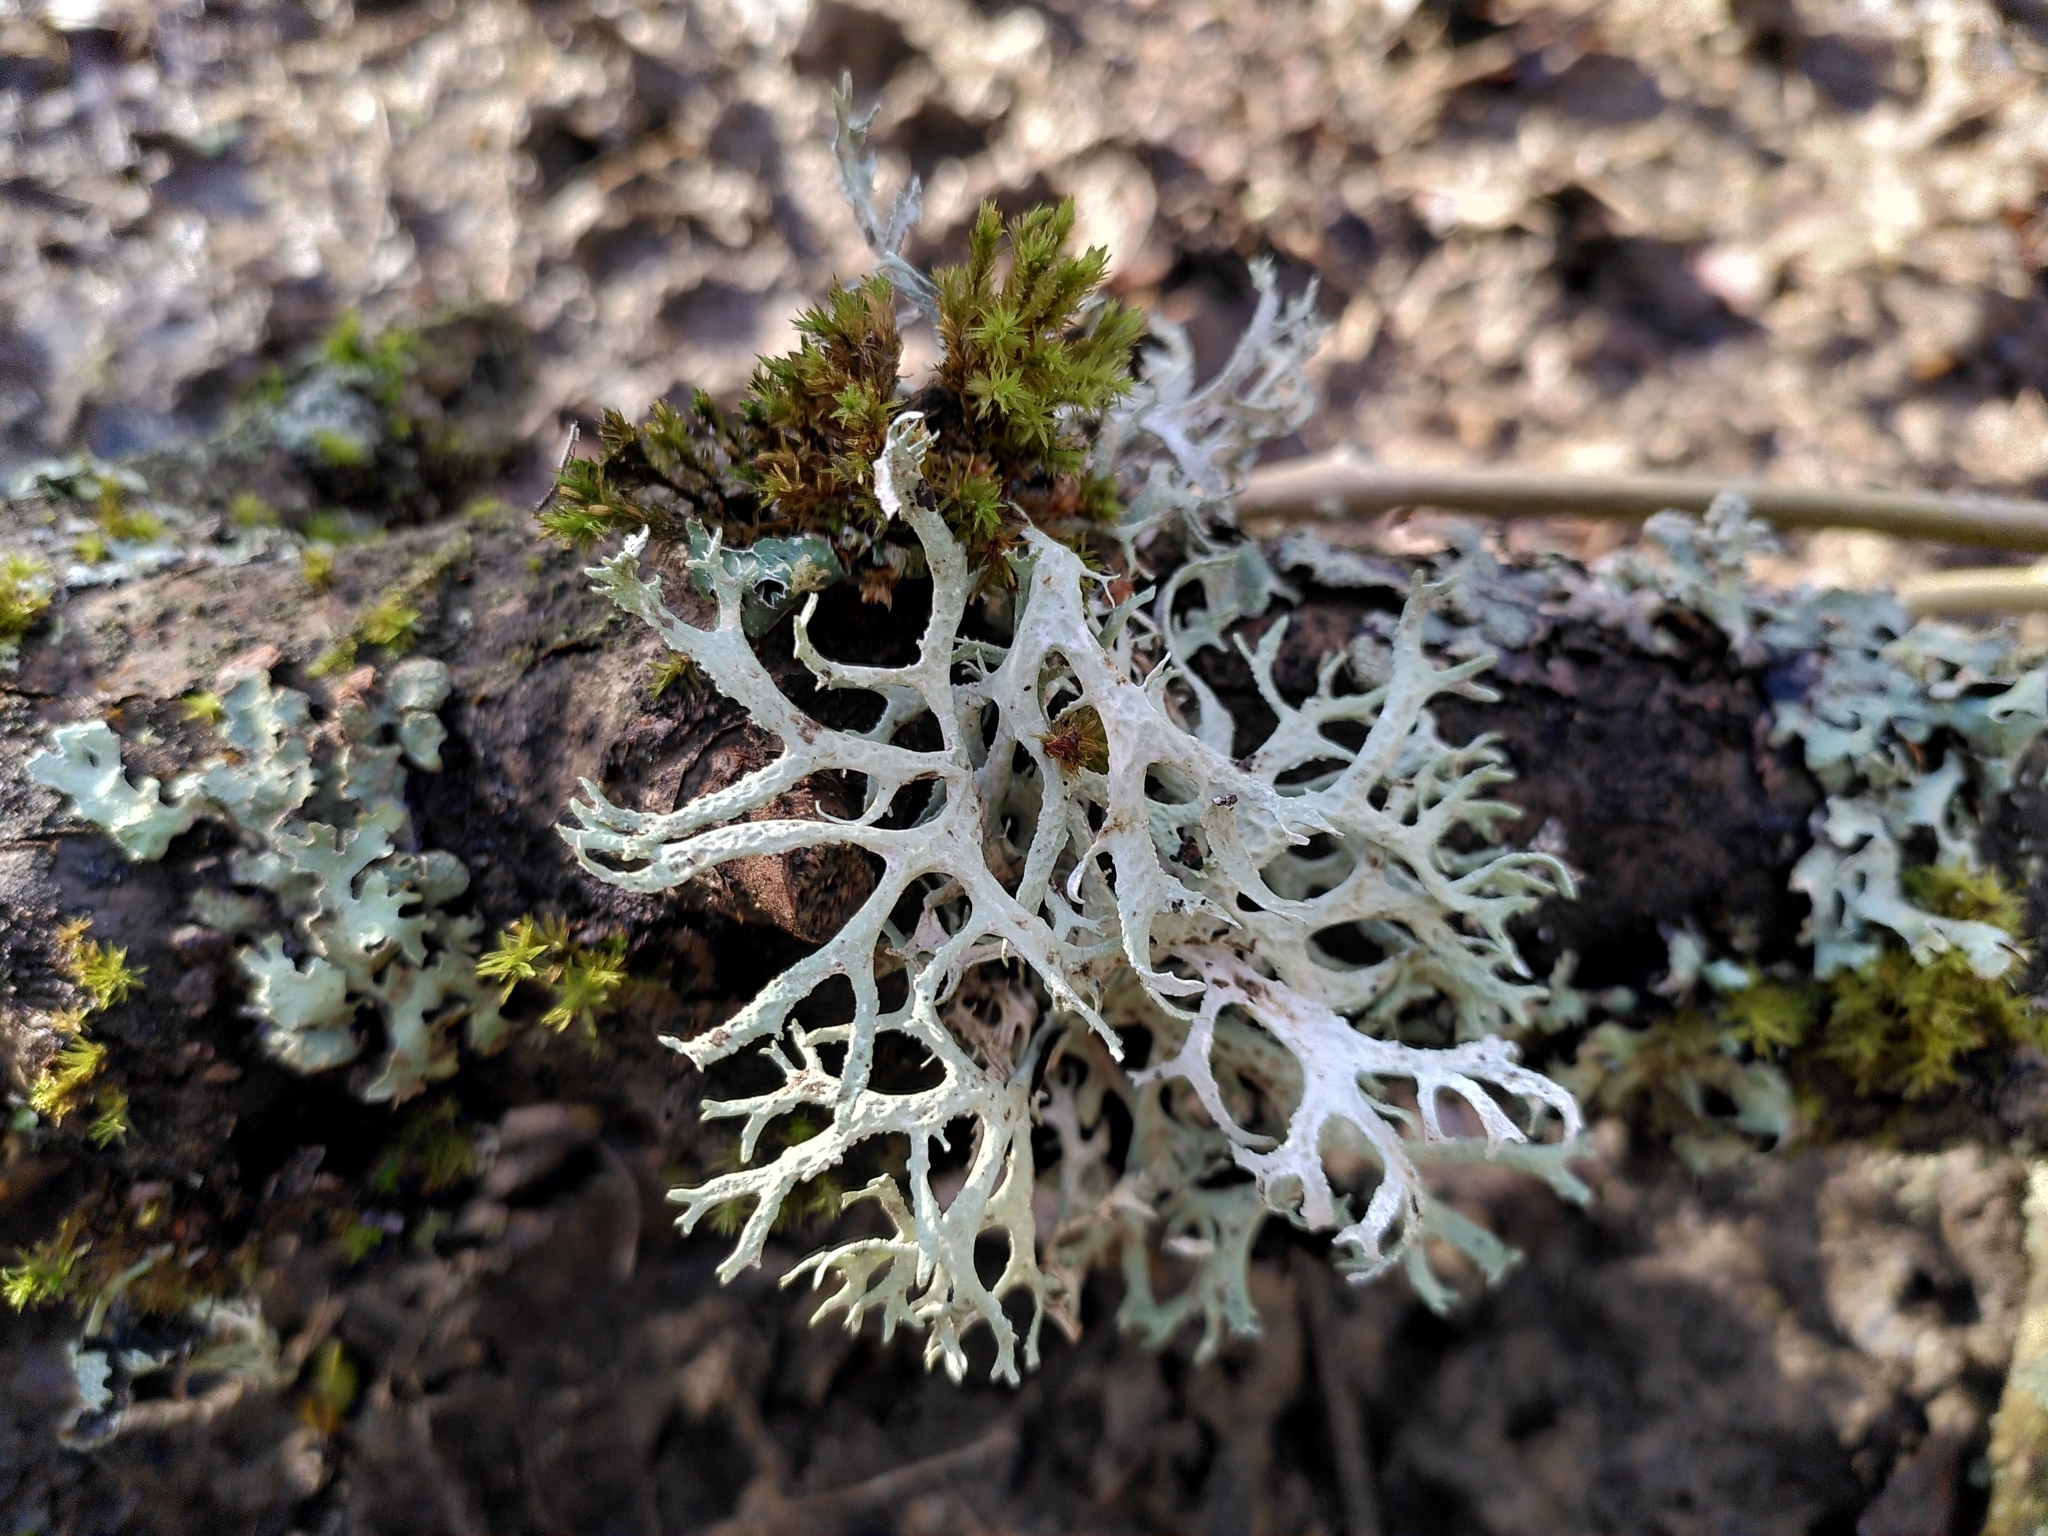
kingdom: Fungi
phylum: Ascomycota
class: Lecanoromycetes
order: Lecanorales
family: Parmeliaceae
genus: Evernia
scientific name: Evernia prunastri
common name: Oak moss
